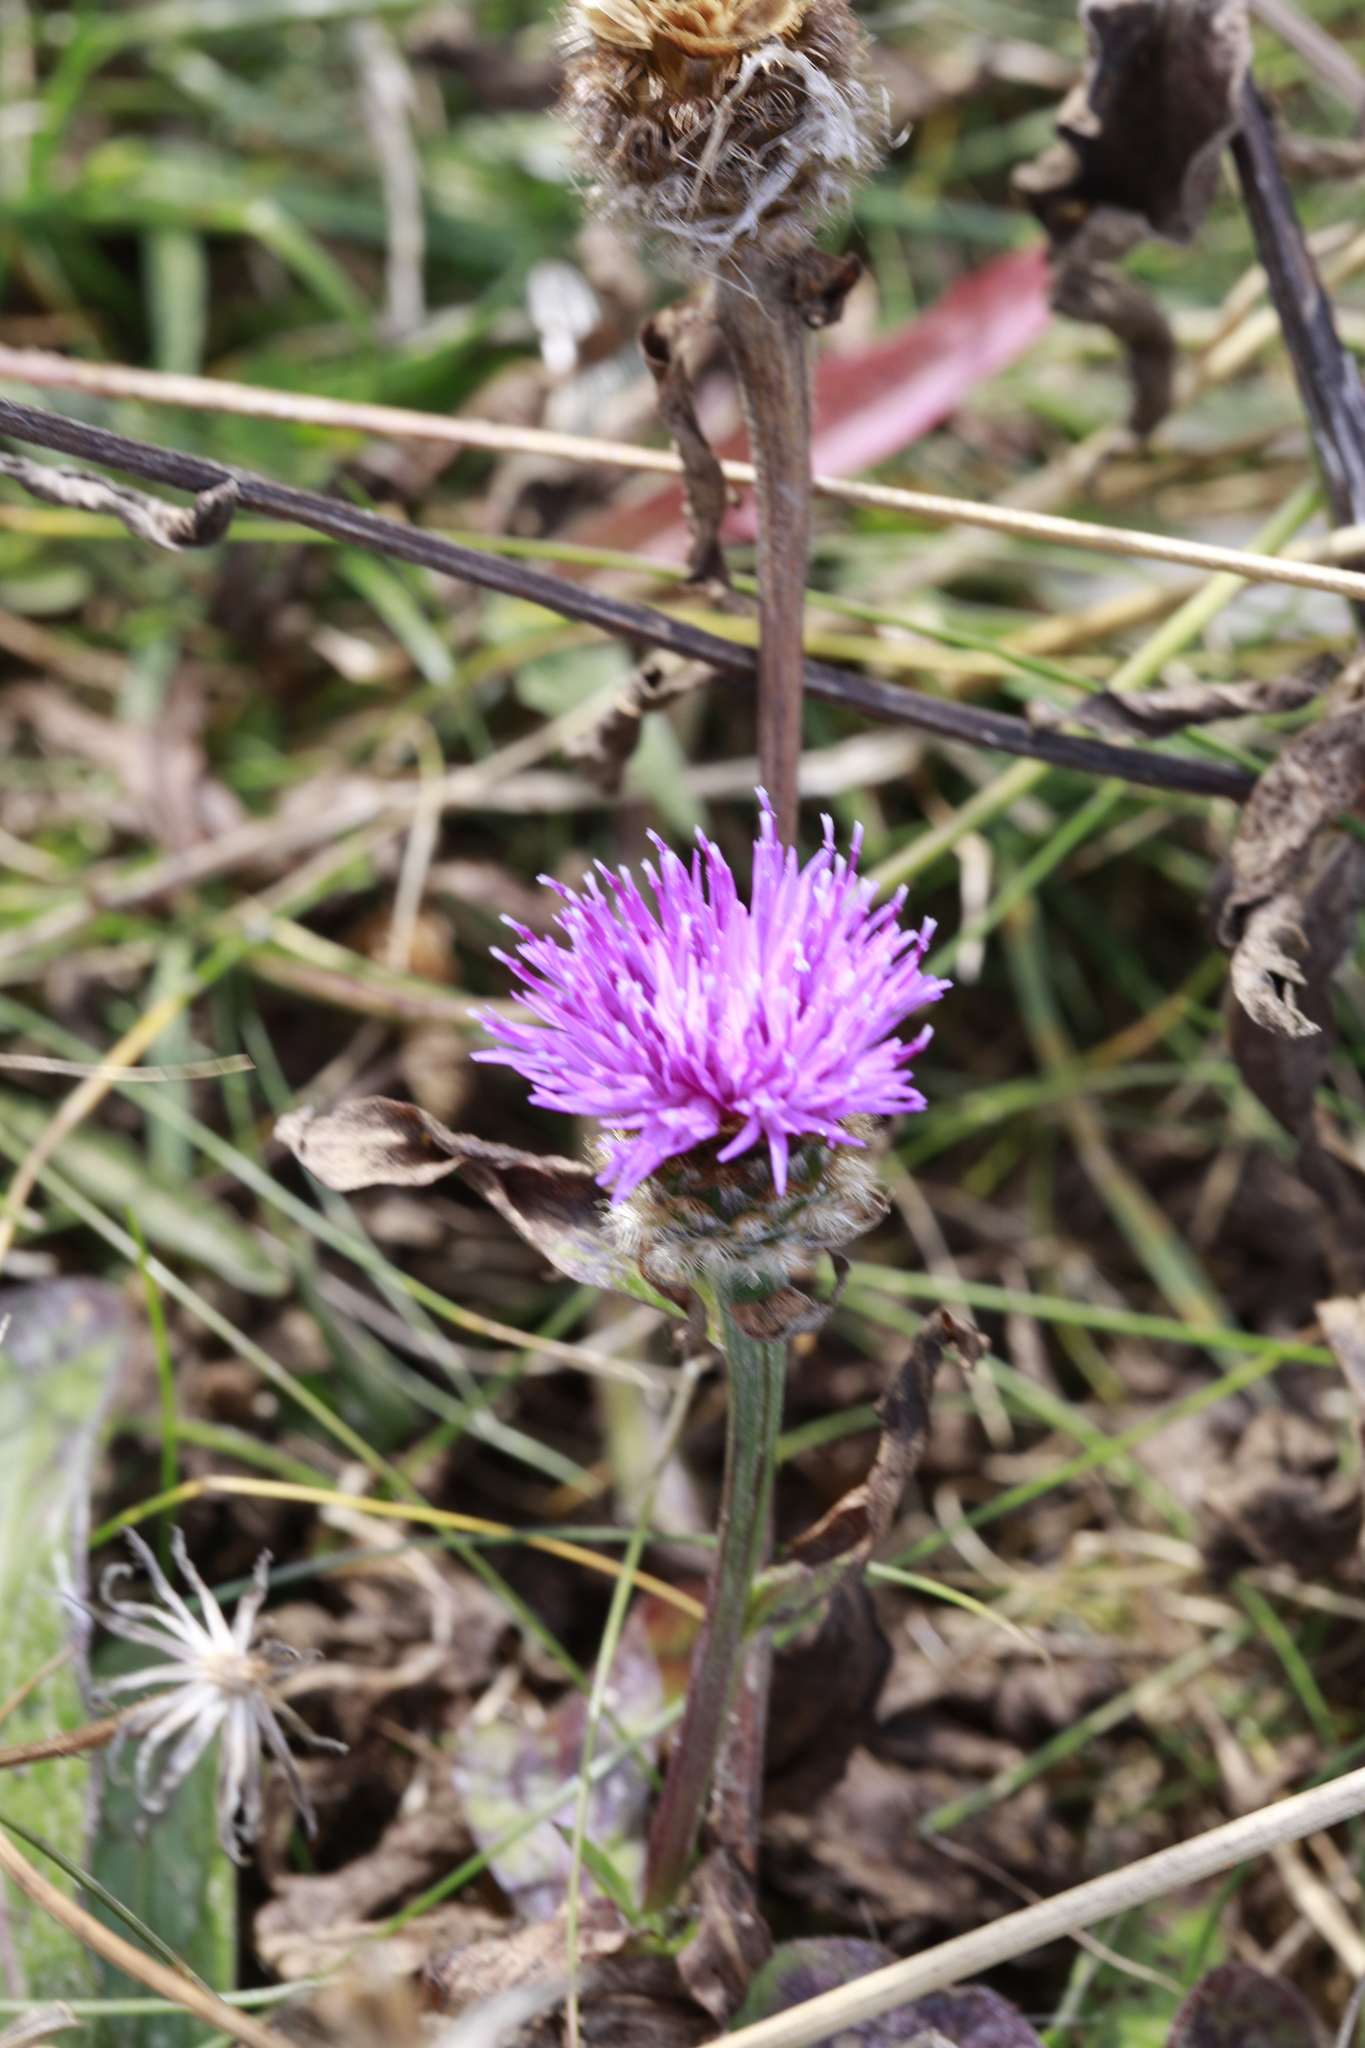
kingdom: Plantae
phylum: Tracheophyta
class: Magnoliopsida
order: Asterales
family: Asteraceae
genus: Centaurea
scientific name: Centaurea nigra
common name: Lesser knapweed
